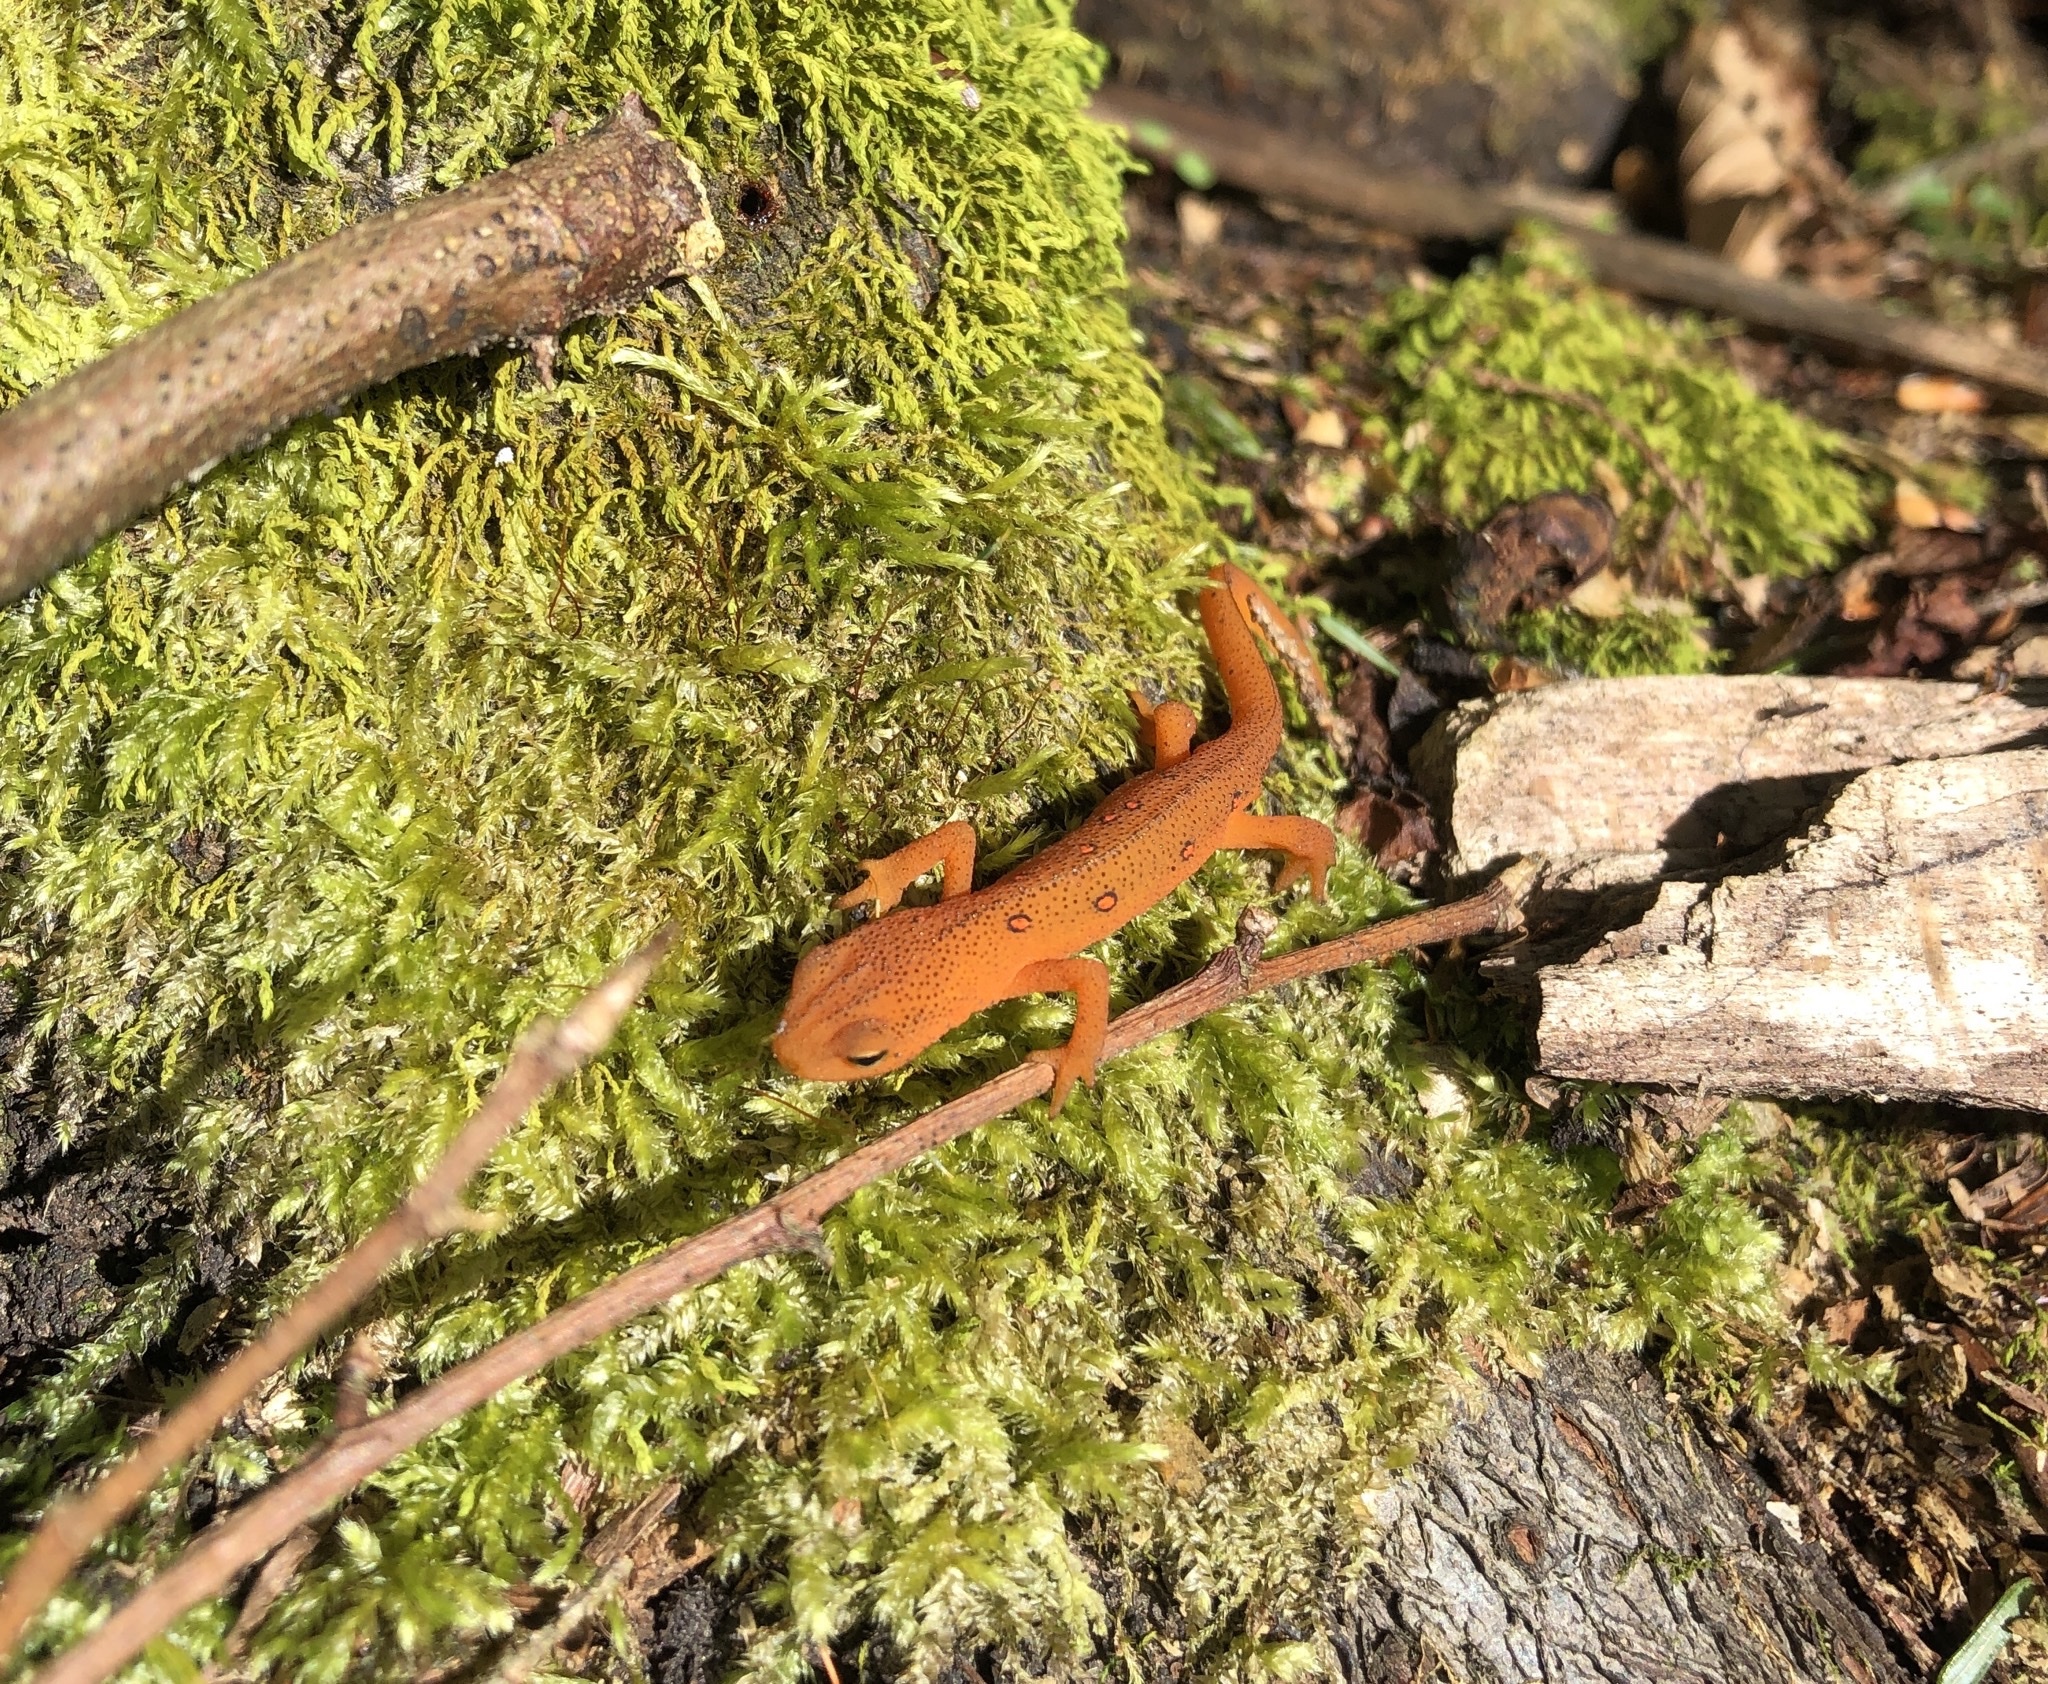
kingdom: Animalia
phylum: Chordata
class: Amphibia
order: Caudata
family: Salamandridae
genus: Notophthalmus
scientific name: Notophthalmus viridescens
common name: Eastern newt
